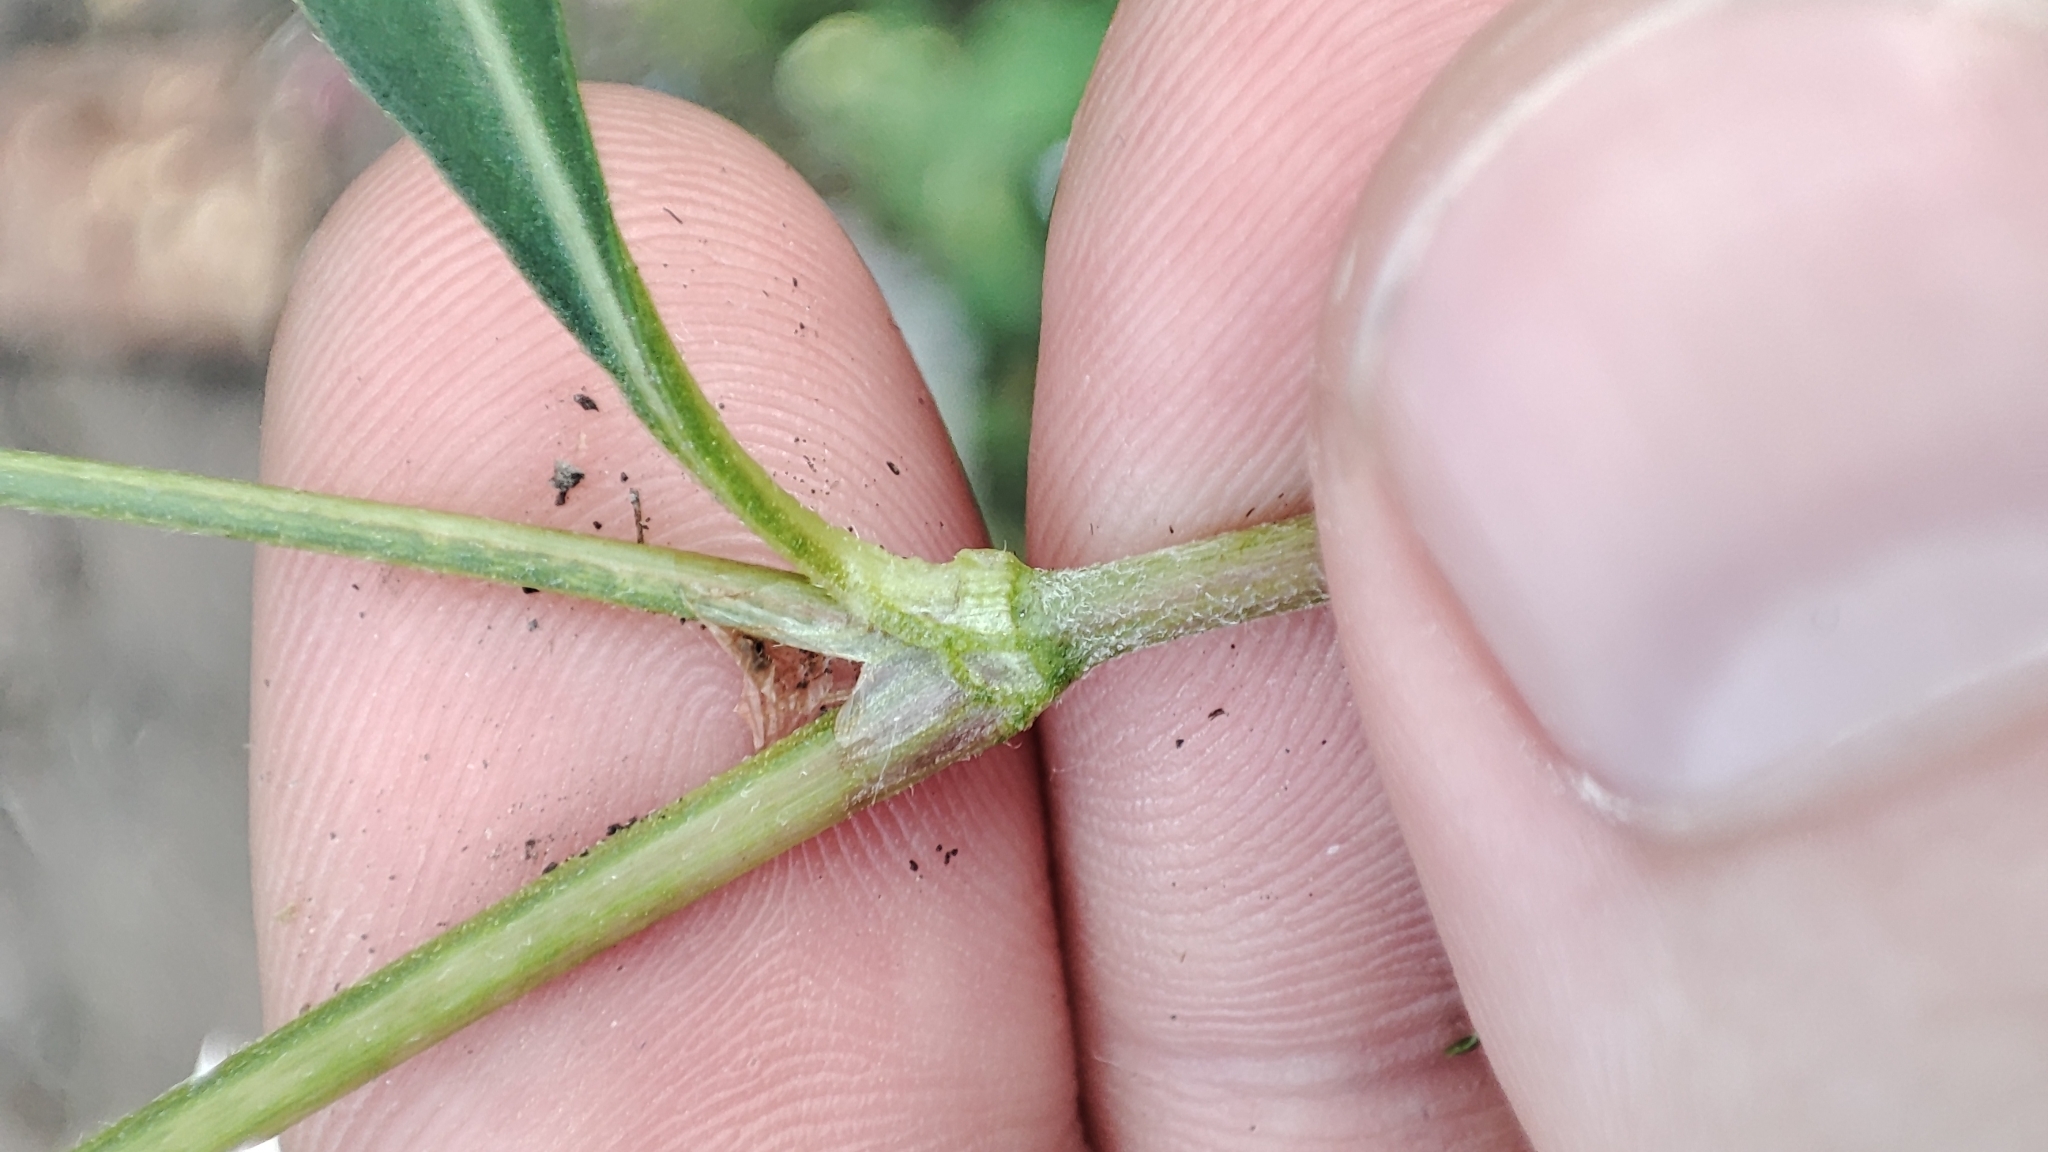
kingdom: Plantae
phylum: Tracheophyta
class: Magnoliopsida
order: Caryophyllales
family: Polygonaceae
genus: Persicaria
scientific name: Persicaria lapathifolia
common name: Curlytop knotweed
